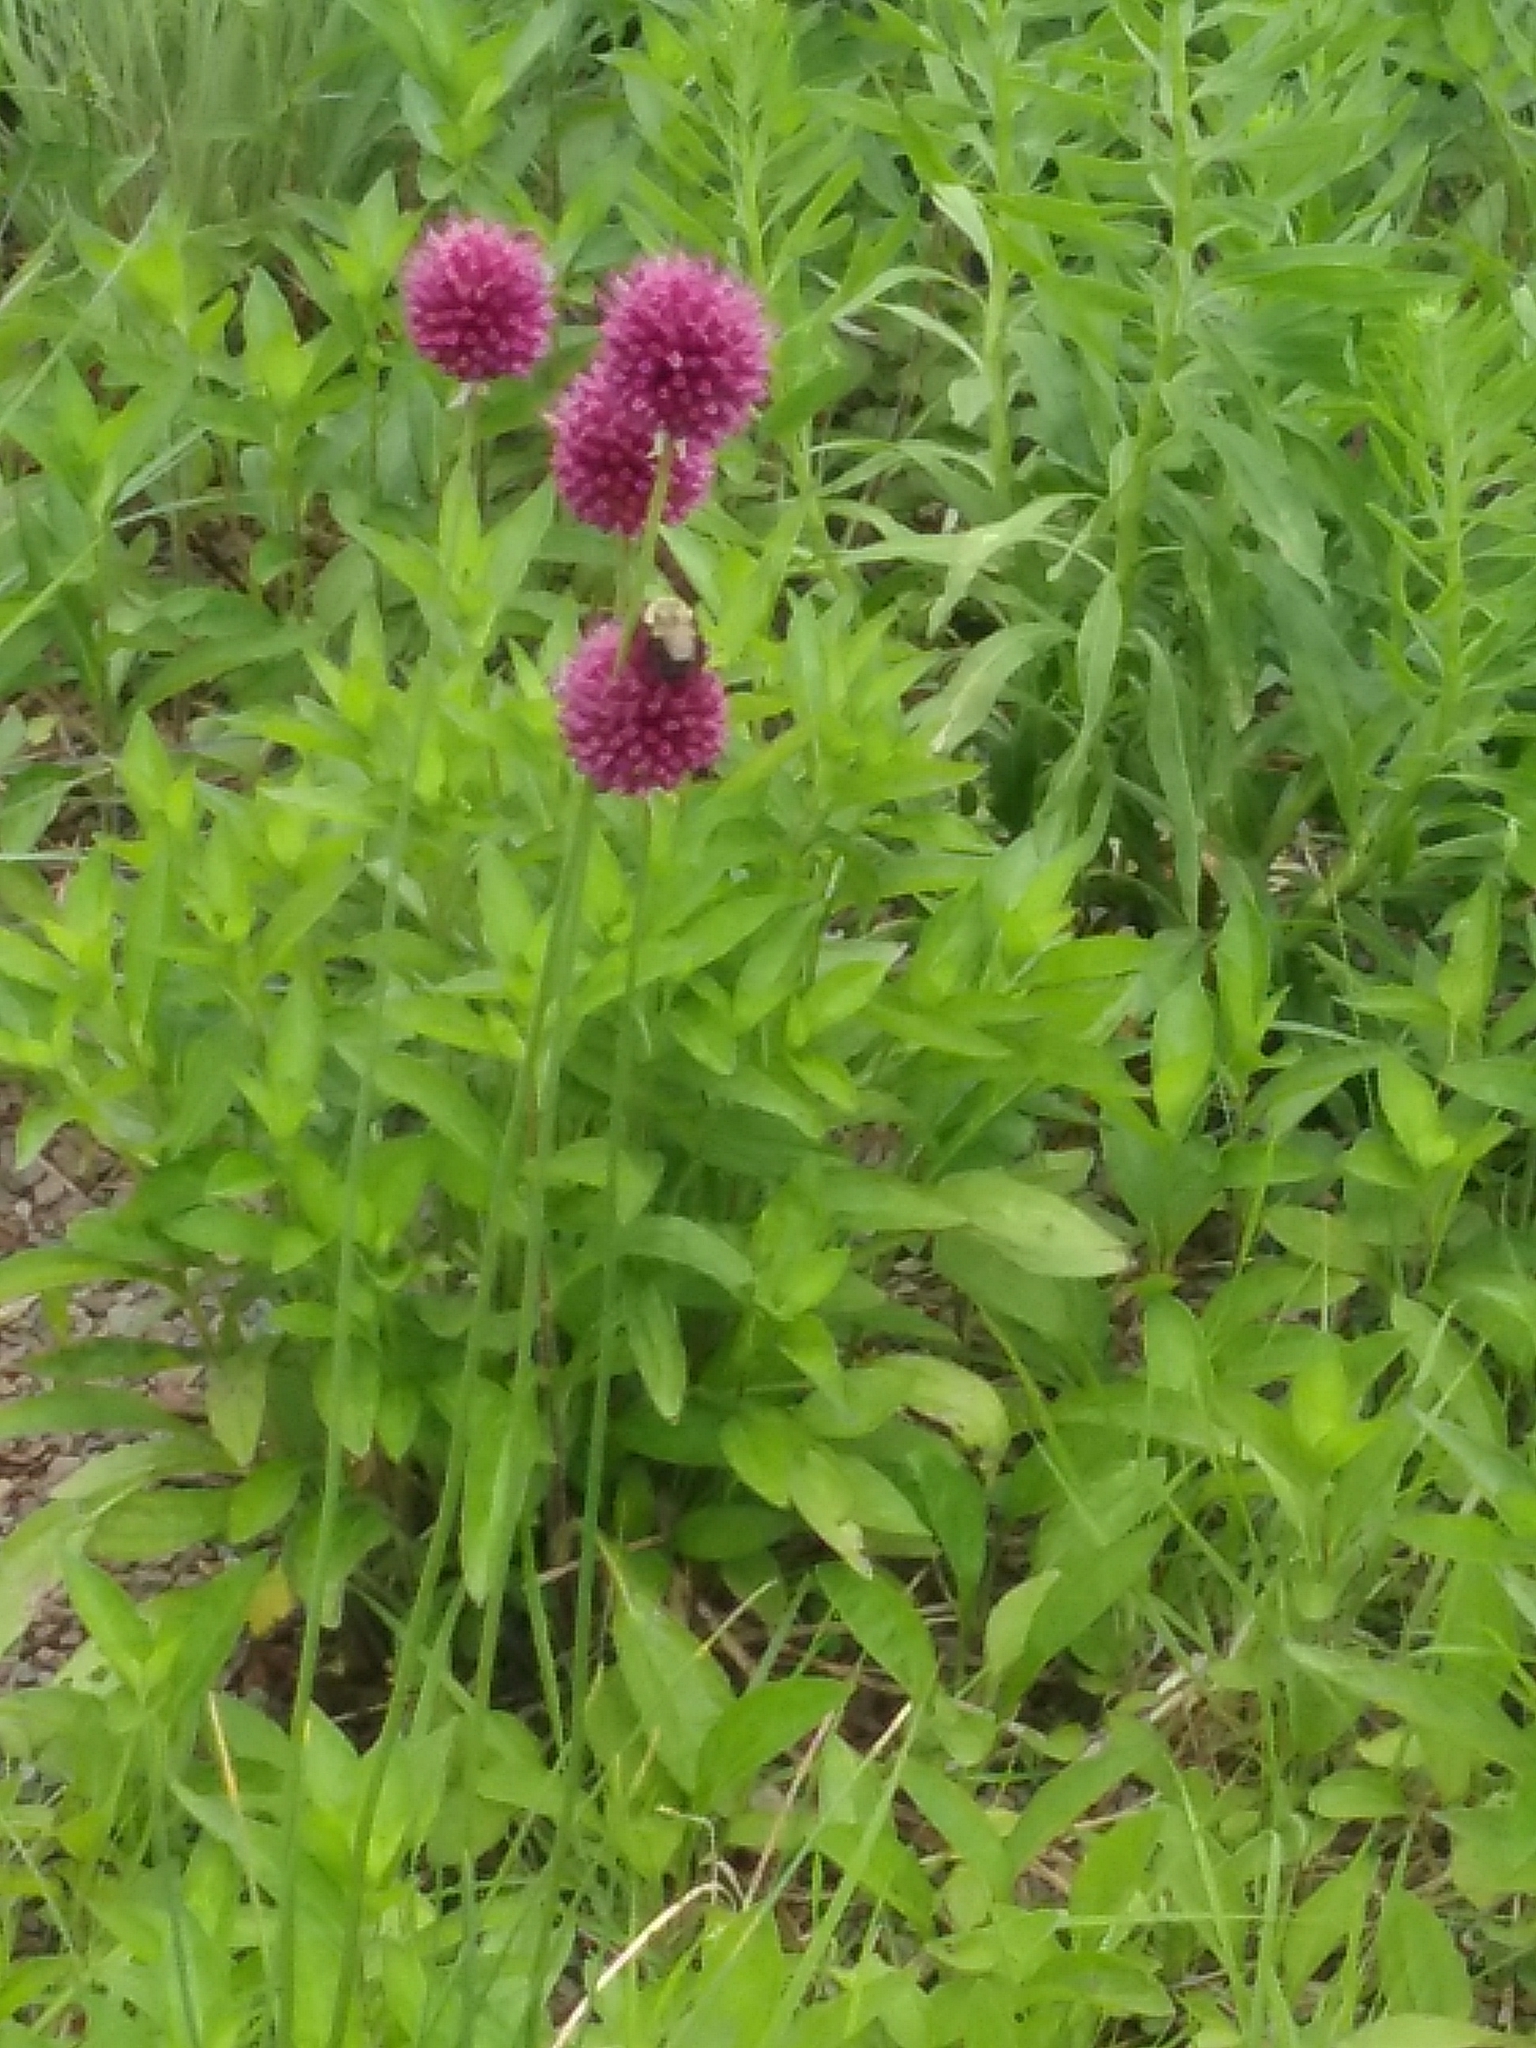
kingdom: Animalia
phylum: Arthropoda
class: Insecta
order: Hymenoptera
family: Apidae
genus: Bombus
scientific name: Bombus impatiens
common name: Common eastern bumble bee
